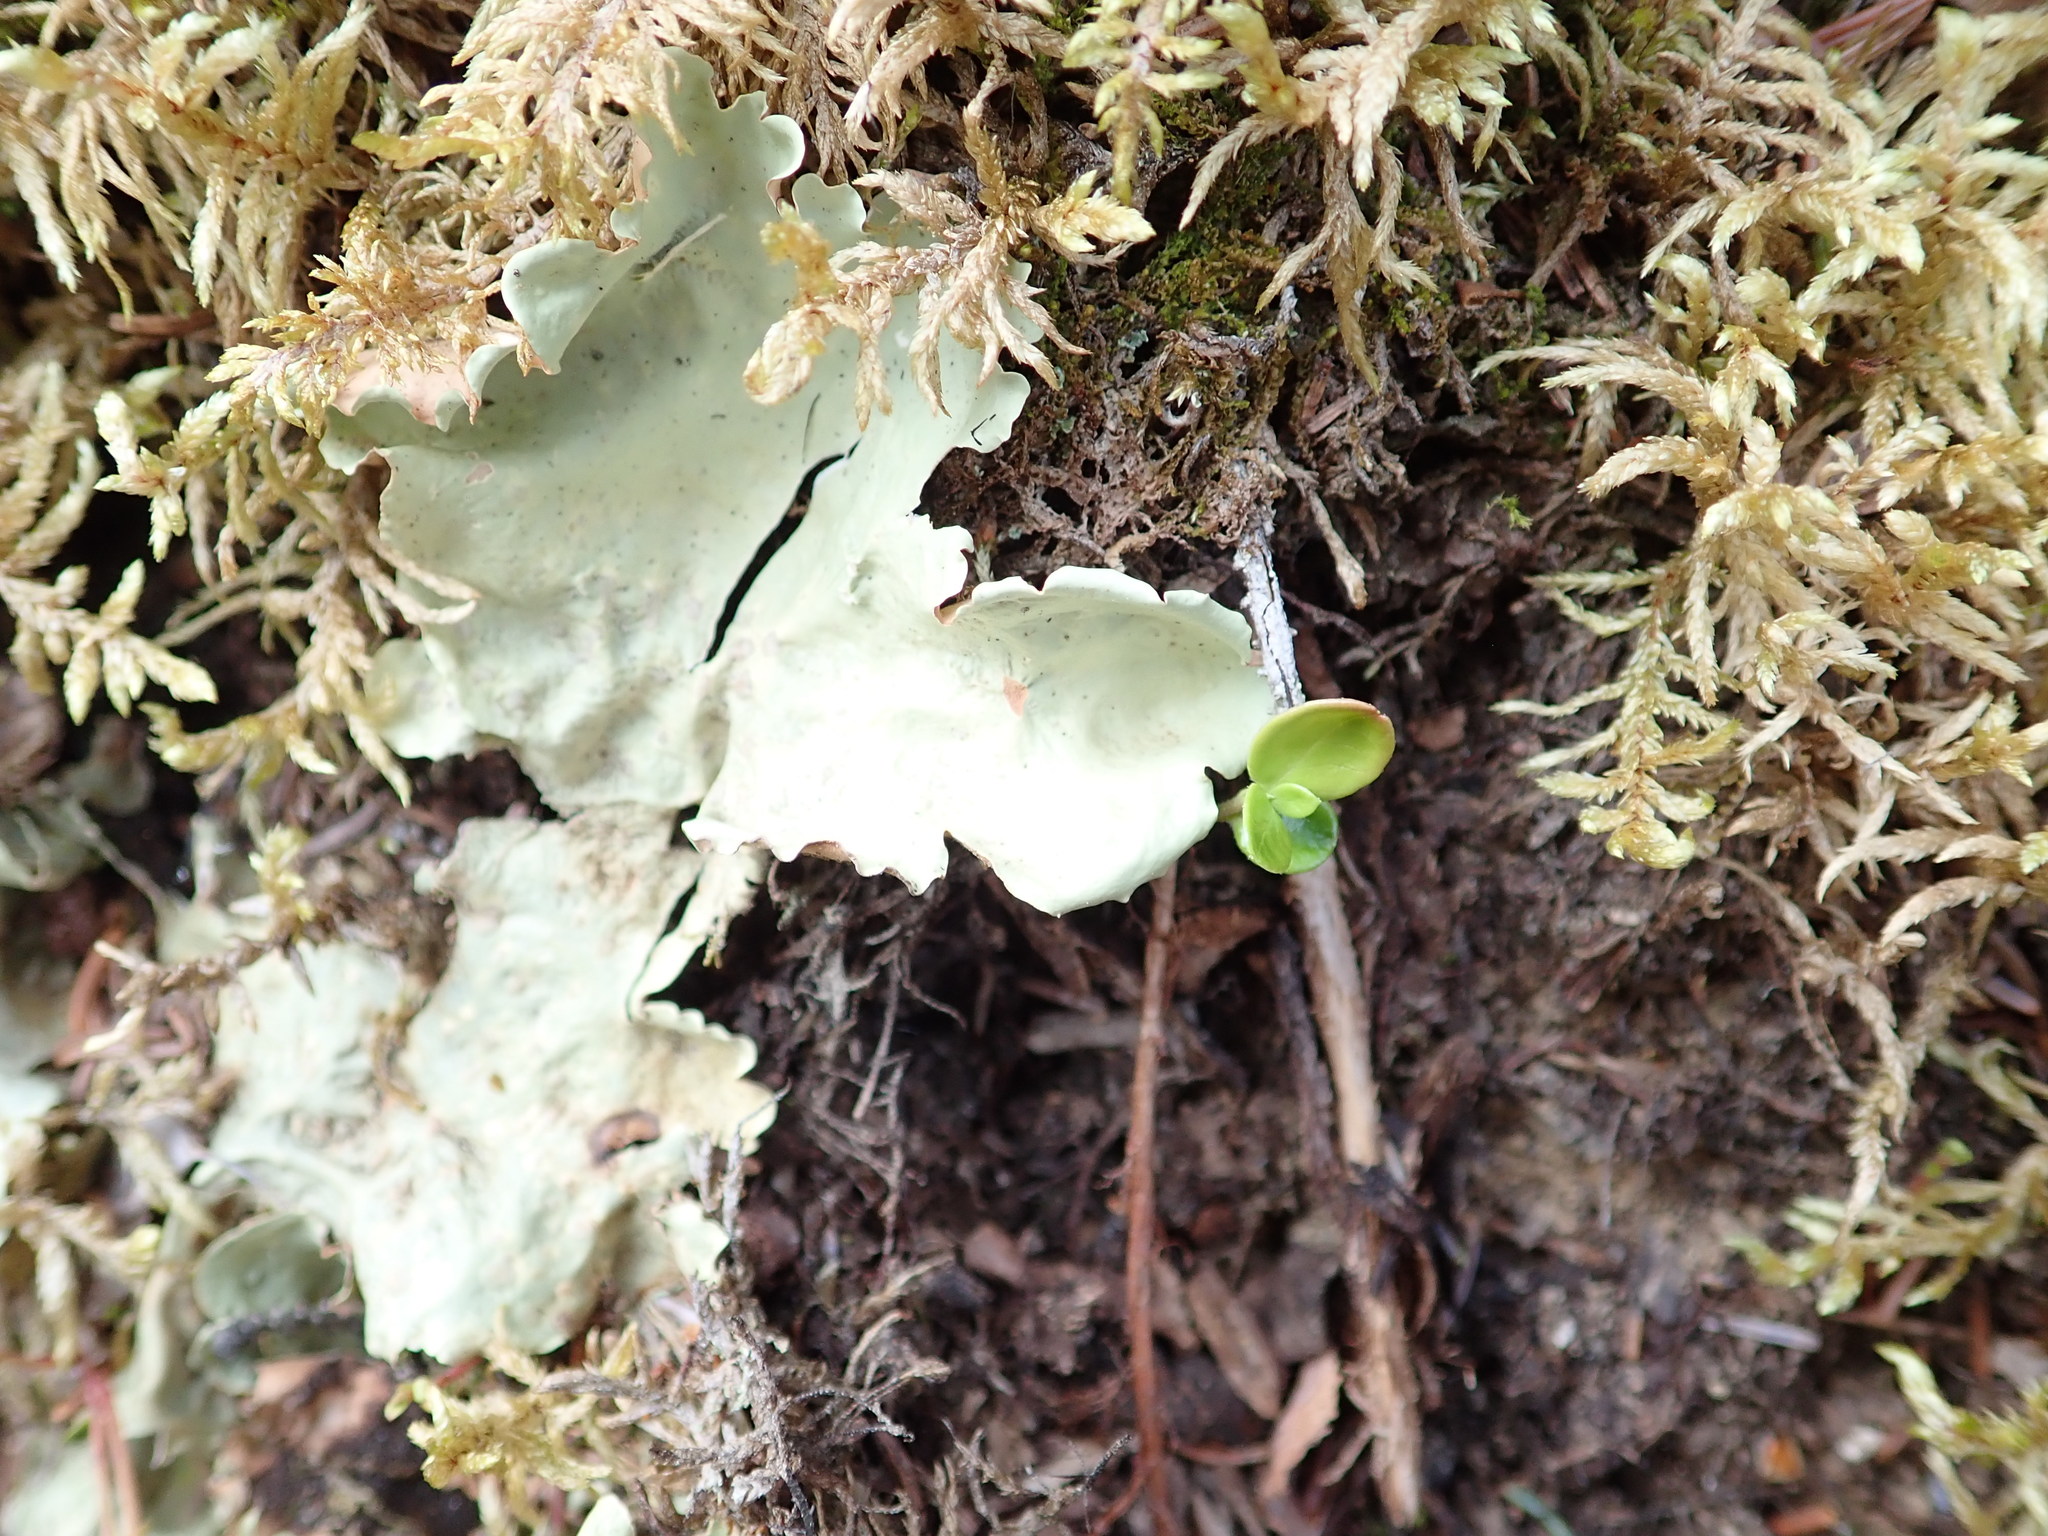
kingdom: Fungi
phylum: Ascomycota
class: Lecanoromycetes
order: Peltigerales
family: Nephromataceae
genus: Nephroma
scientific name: Nephroma arcticum
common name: Arctic kidney-lichen
